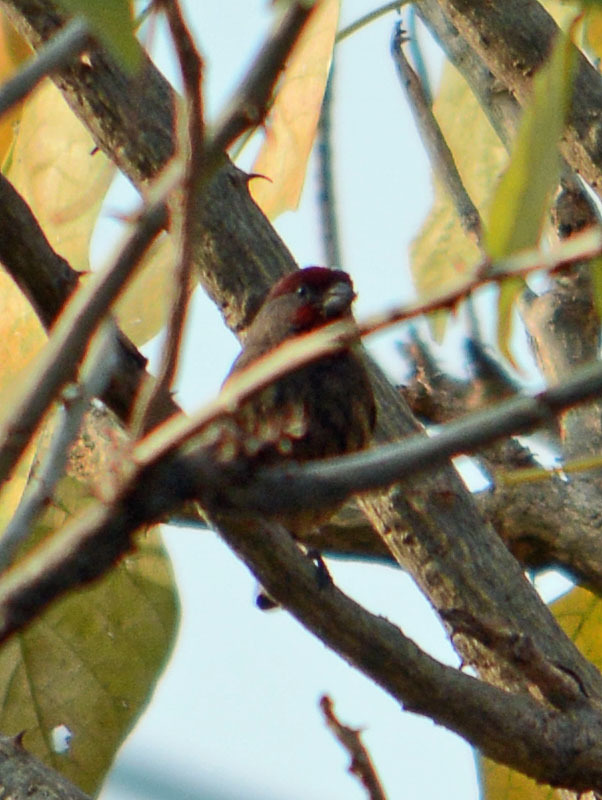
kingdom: Animalia
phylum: Chordata
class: Aves
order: Passeriformes
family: Fringillidae
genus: Haemorhous
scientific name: Haemorhous mexicanus
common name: House finch
